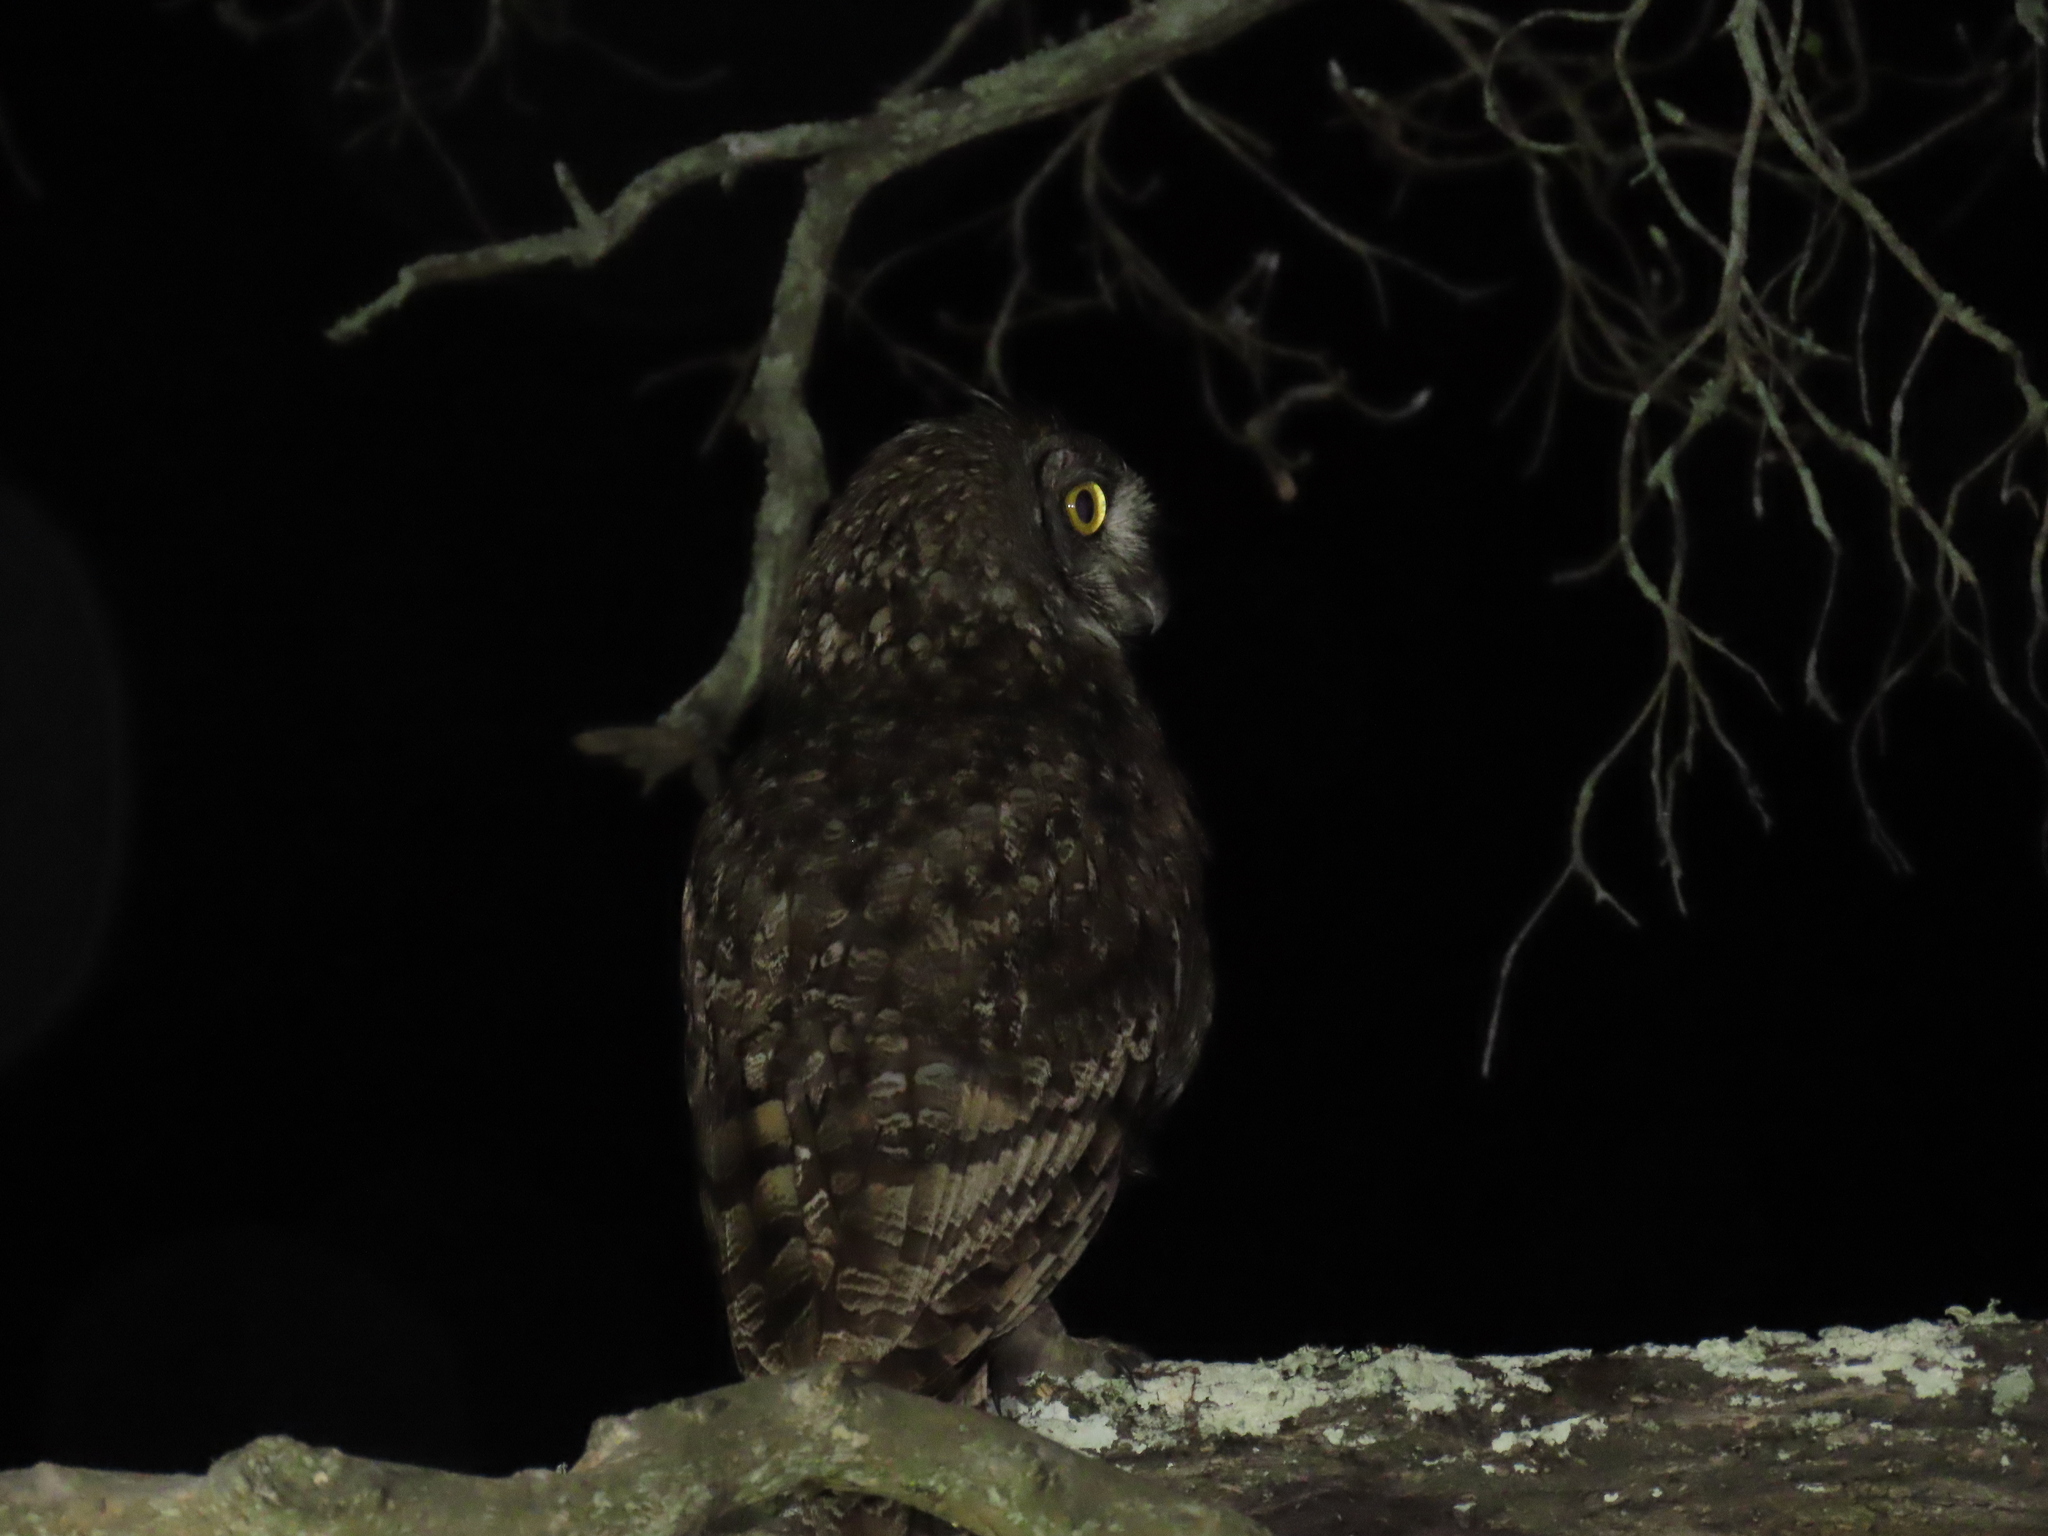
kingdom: Animalia
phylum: Chordata
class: Aves
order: Strigiformes
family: Strigidae
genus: Bubo
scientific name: Bubo africanus
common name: Spotted eagle-owl
